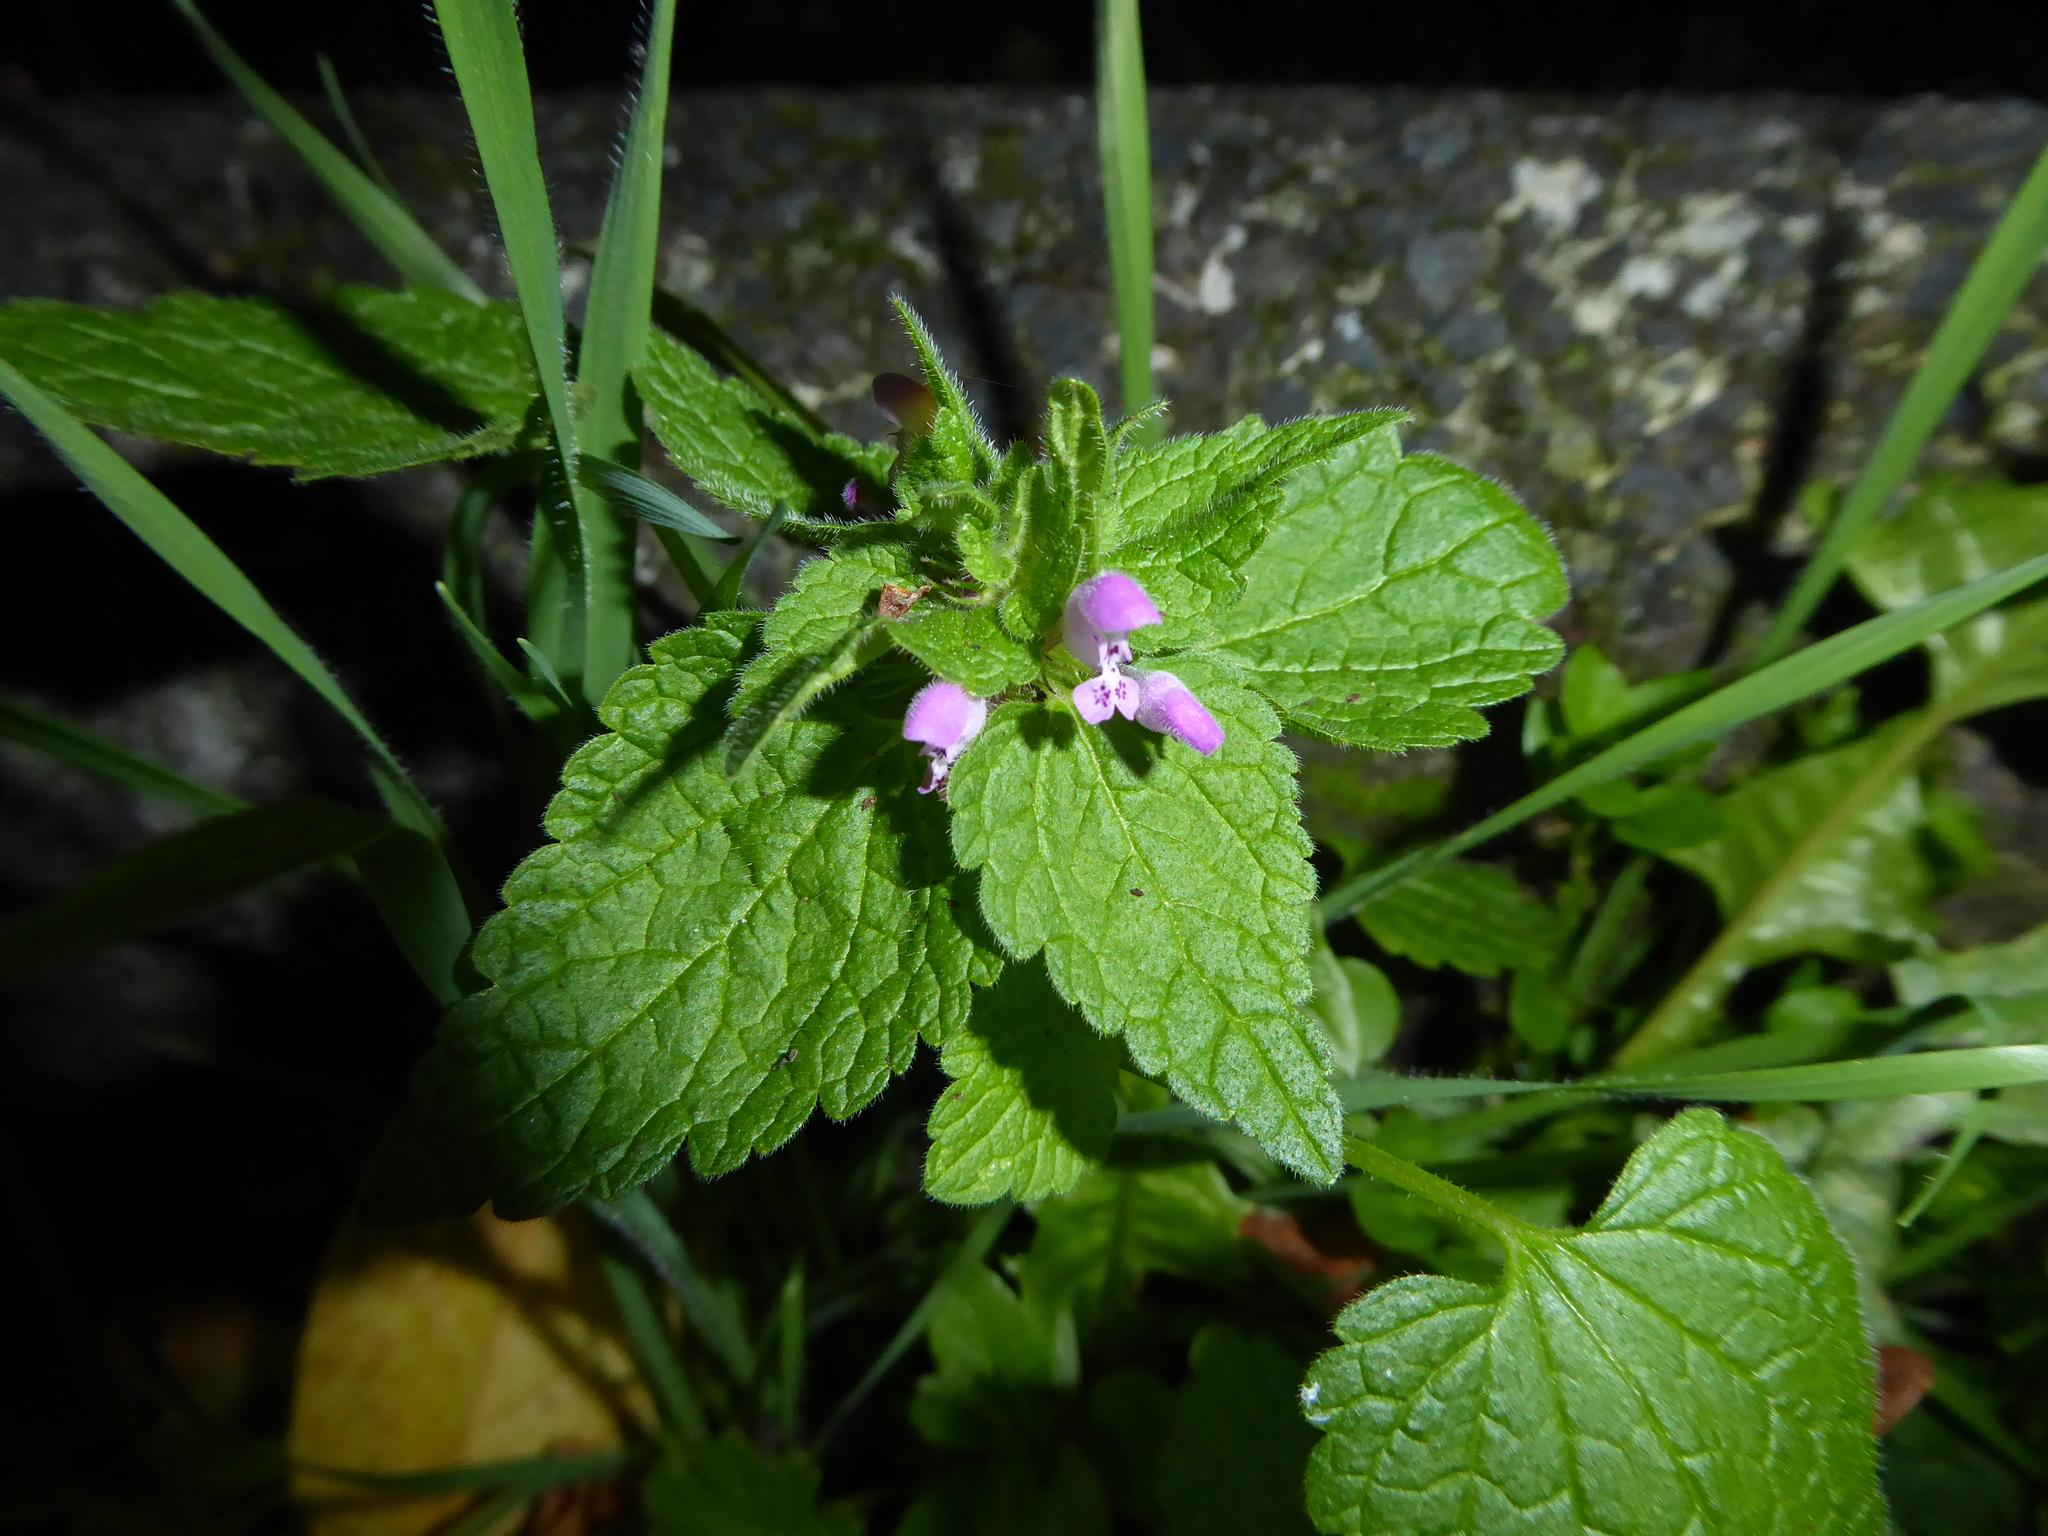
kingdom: Plantae
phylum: Tracheophyta
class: Magnoliopsida
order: Lamiales
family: Lamiaceae
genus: Lamium
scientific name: Lamium purpureum
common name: Red dead-nettle
